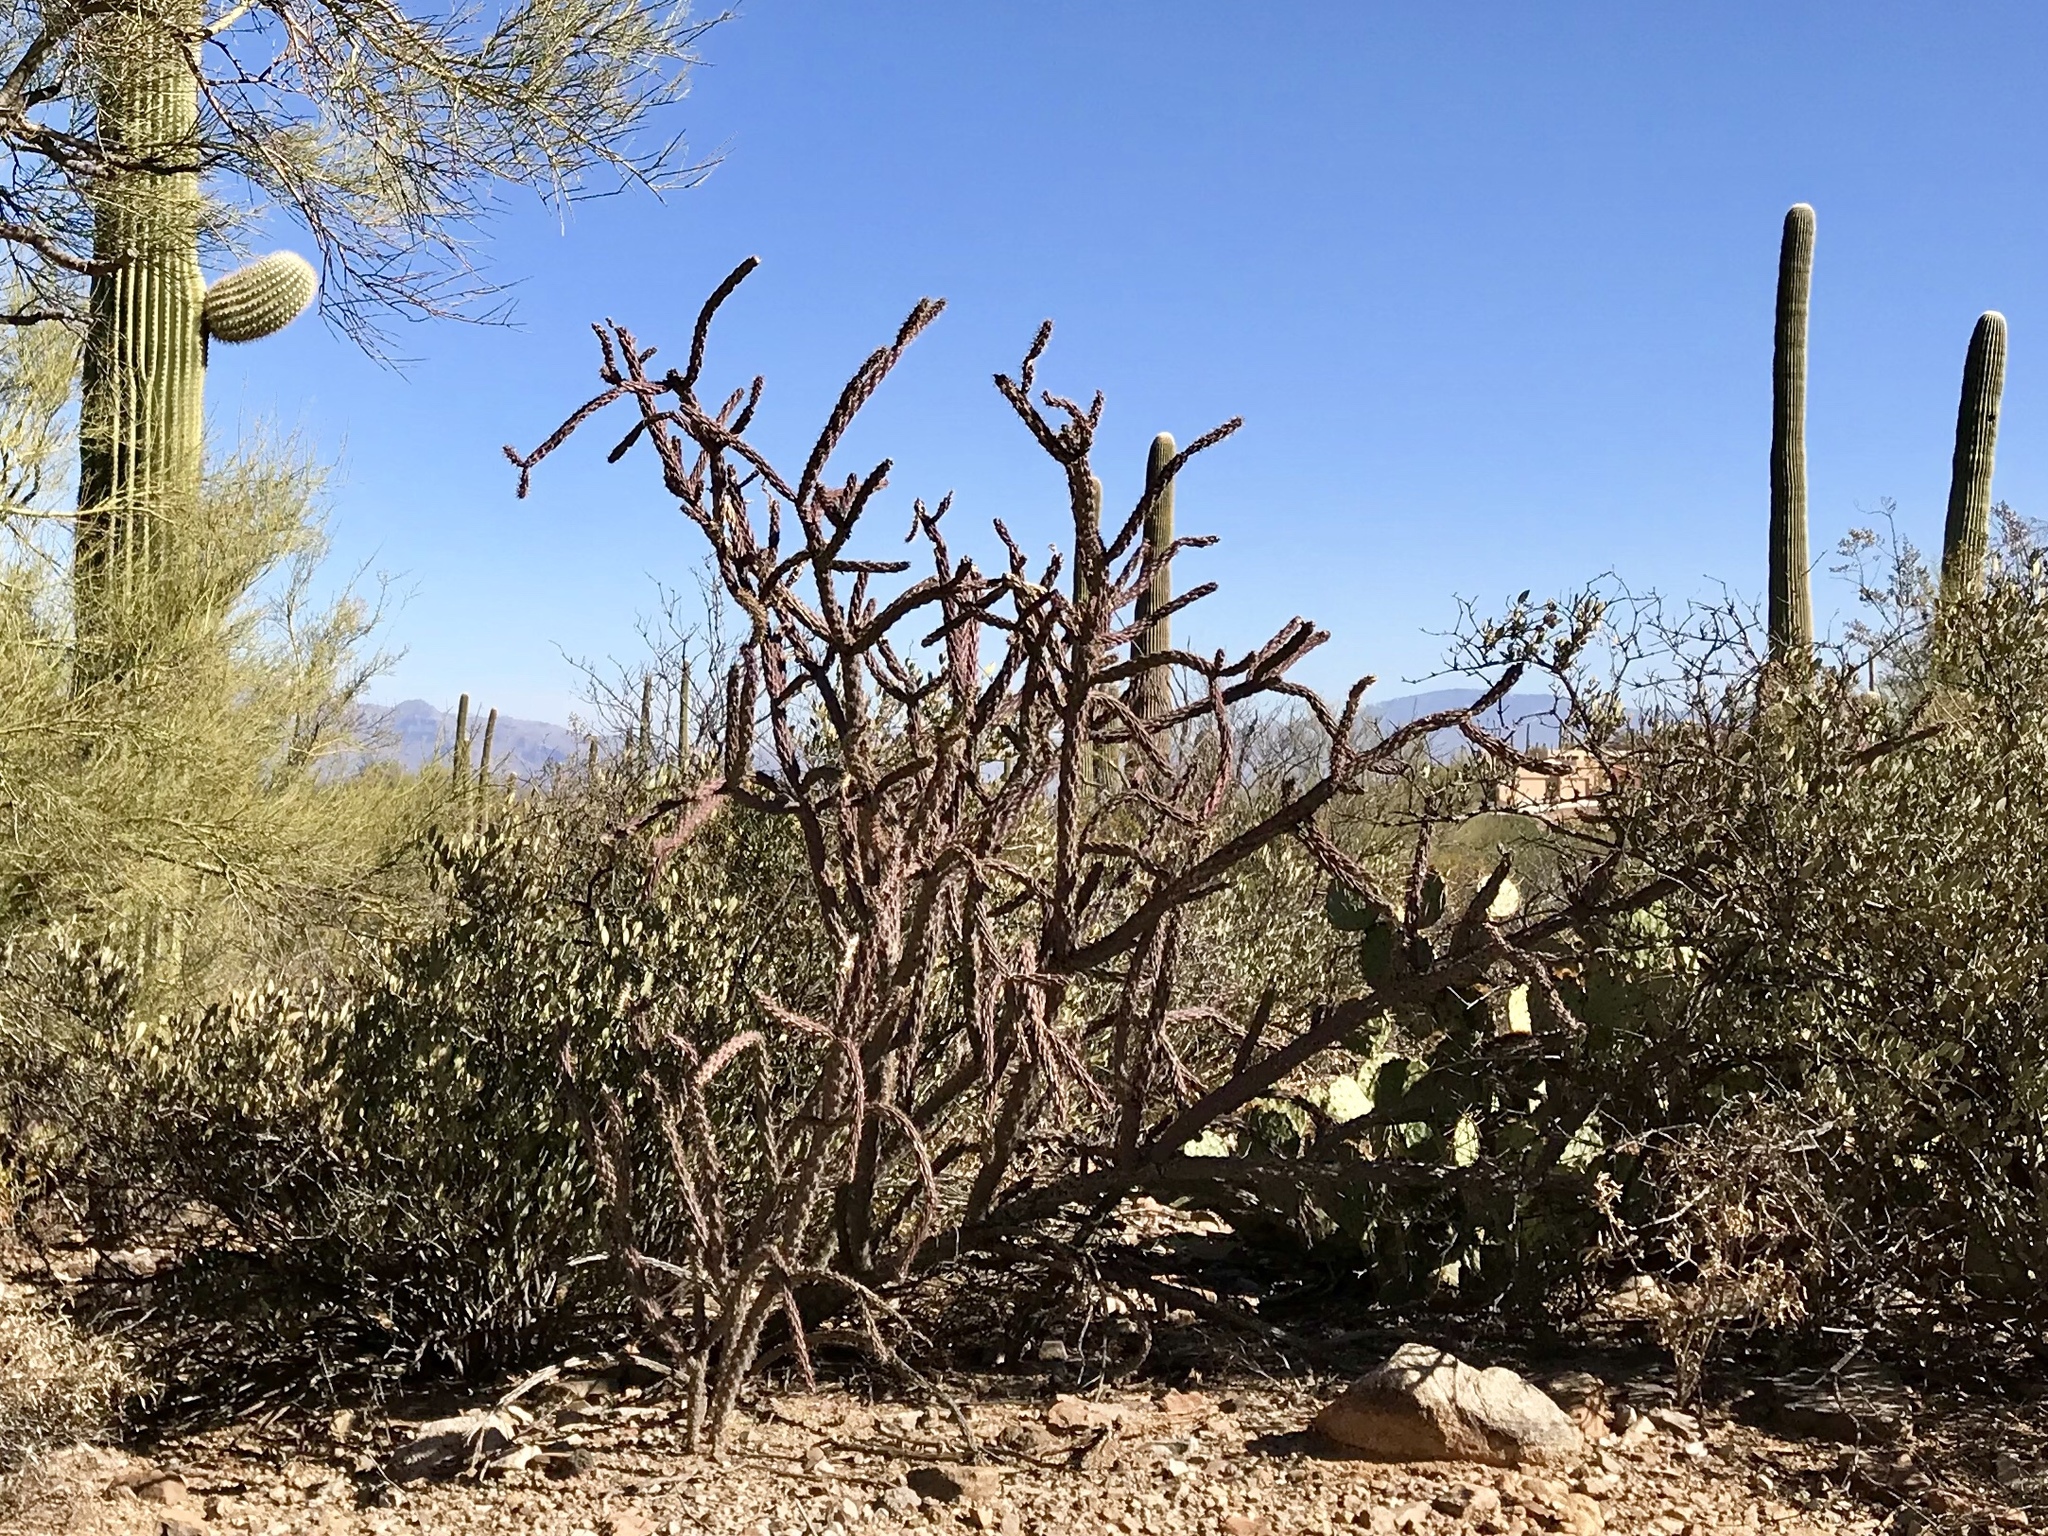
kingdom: Plantae
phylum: Tracheophyta
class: Magnoliopsida
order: Caryophyllales
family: Cactaceae
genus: Cylindropuntia
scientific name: Cylindropuntia thurberi
